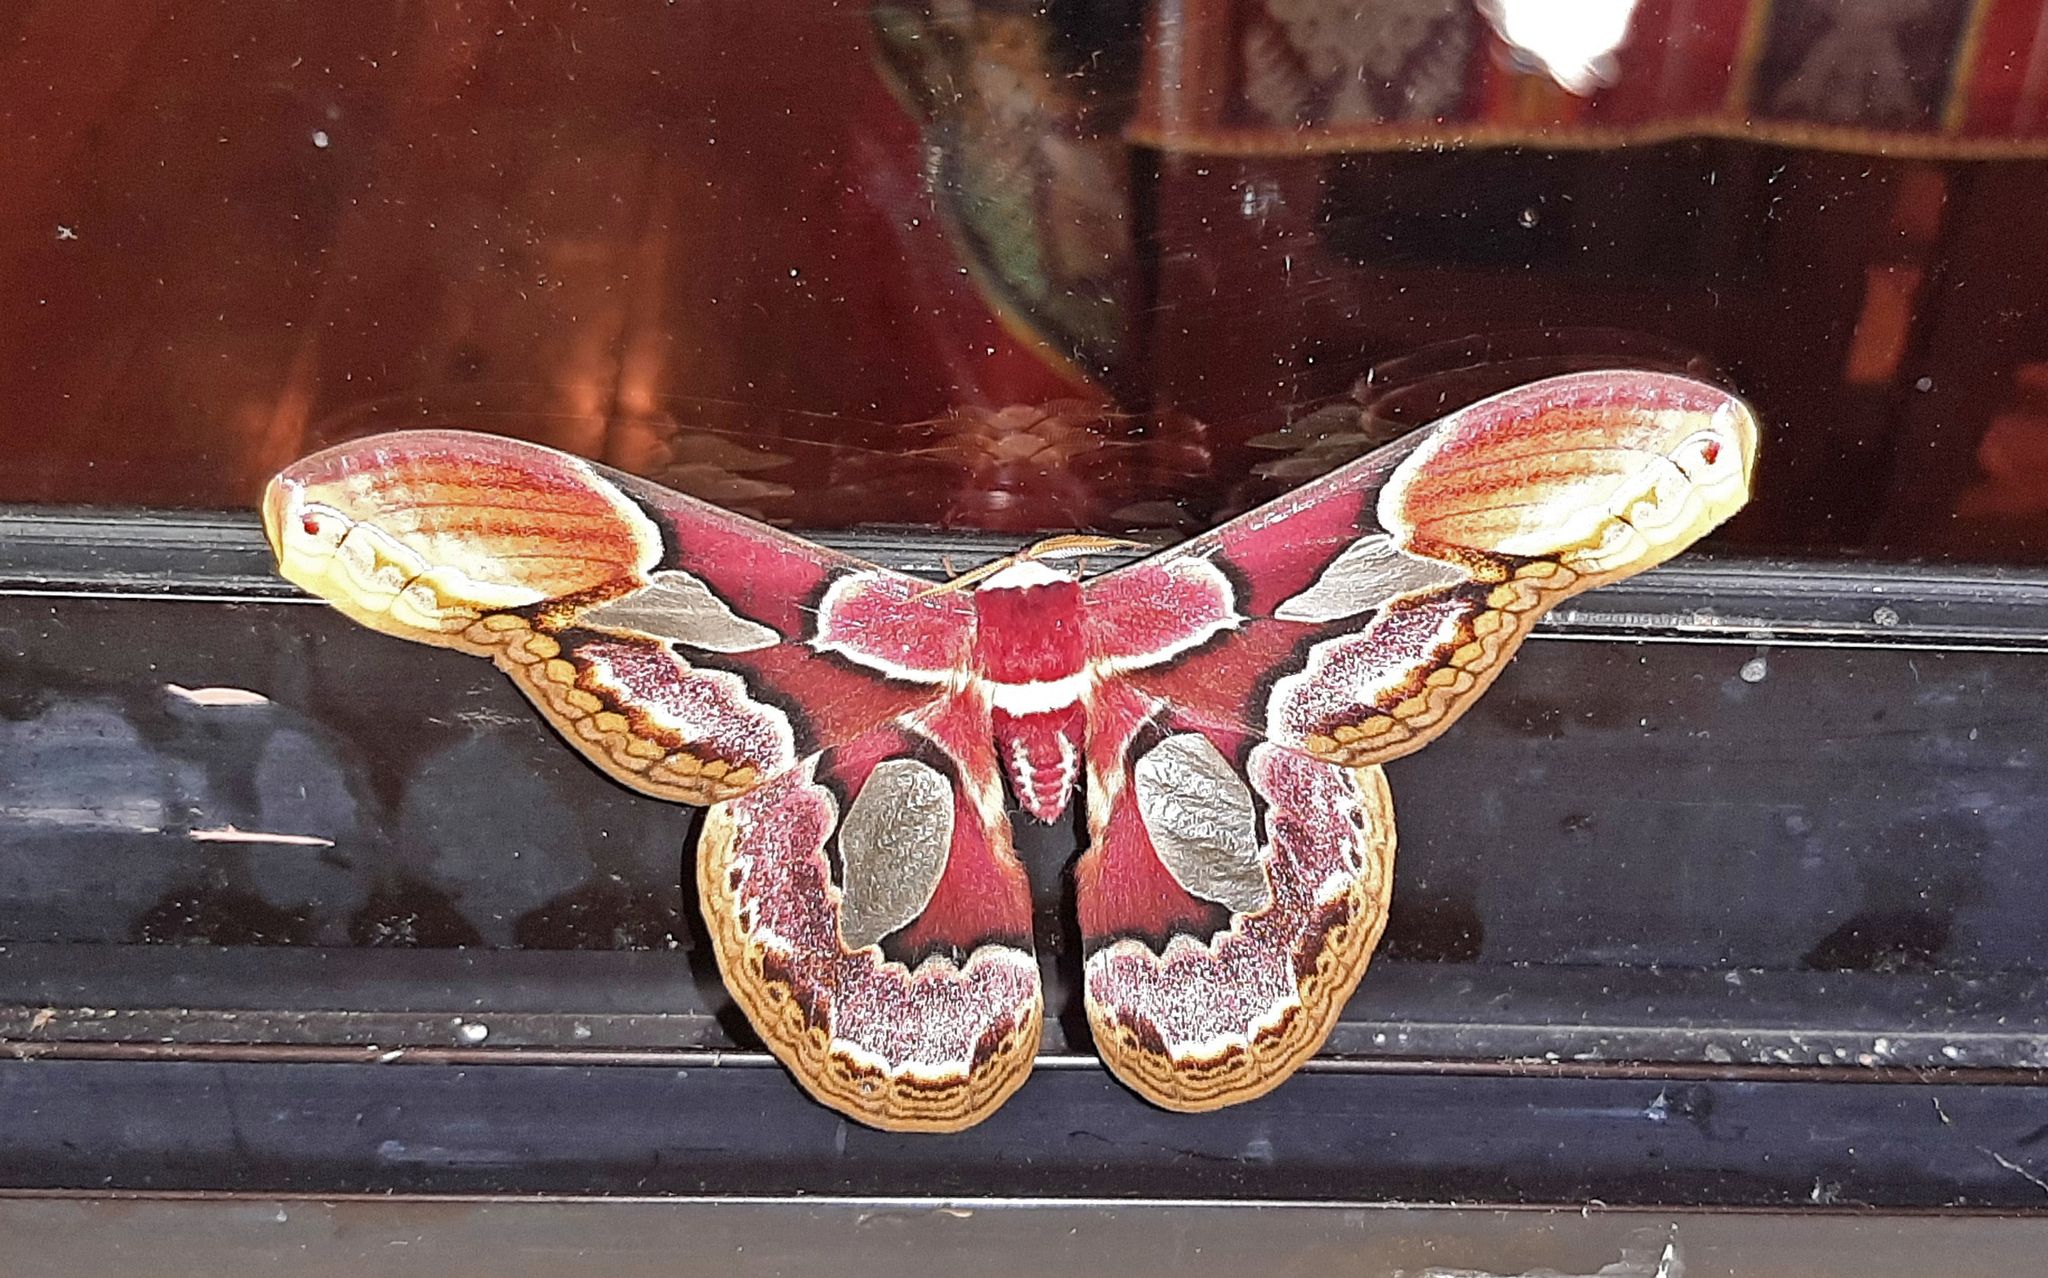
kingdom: Animalia
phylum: Arthropoda
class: Insecta
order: Lepidoptera
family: Saturniidae
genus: Rothschildia
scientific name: Rothschildia erycina
